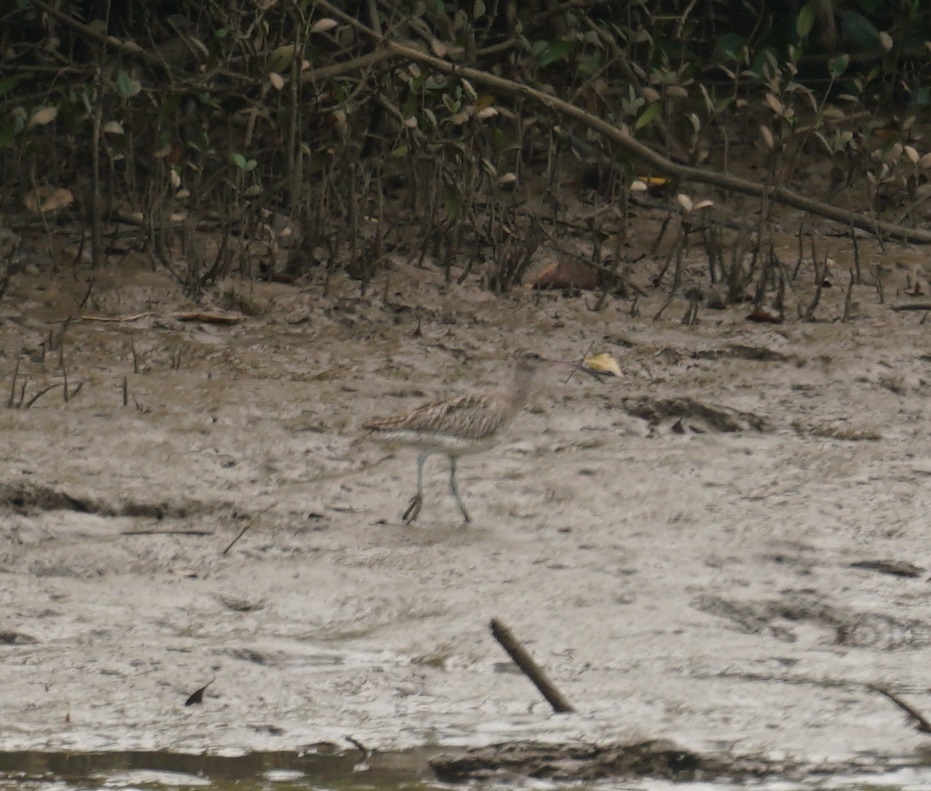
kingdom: Animalia
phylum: Chordata
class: Aves
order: Charadriiformes
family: Scolopacidae
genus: Numenius
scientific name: Numenius phaeopus
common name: Whimbrel
